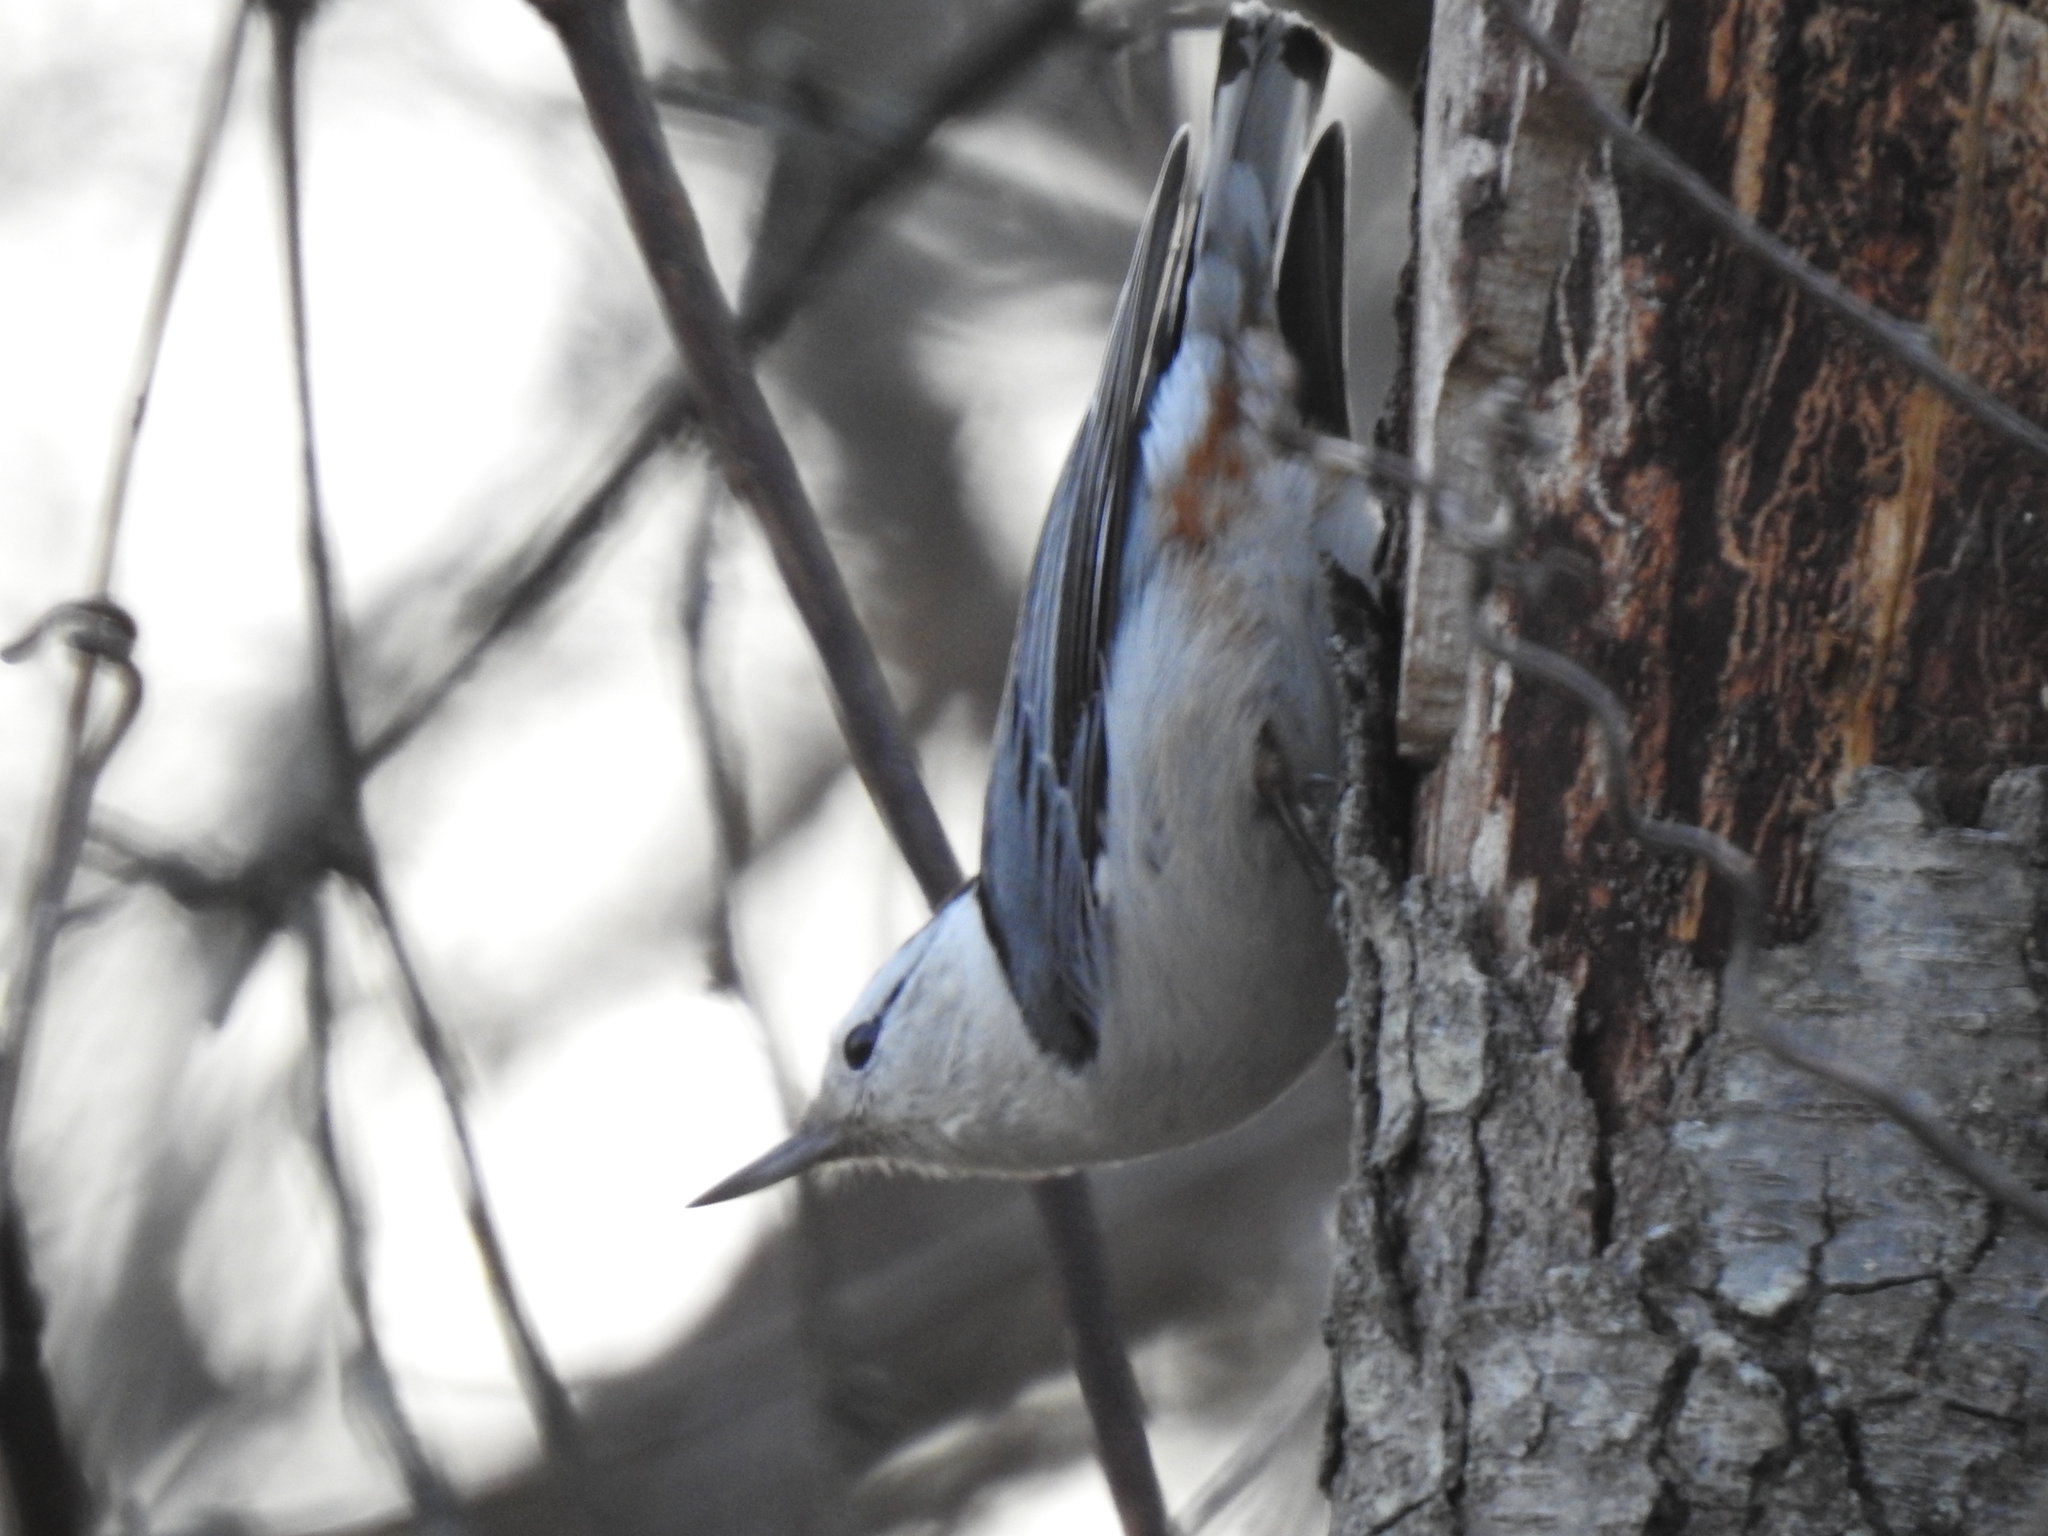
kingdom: Animalia
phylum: Chordata
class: Aves
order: Passeriformes
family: Sittidae
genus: Sitta
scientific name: Sitta carolinensis
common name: White-breasted nuthatch
